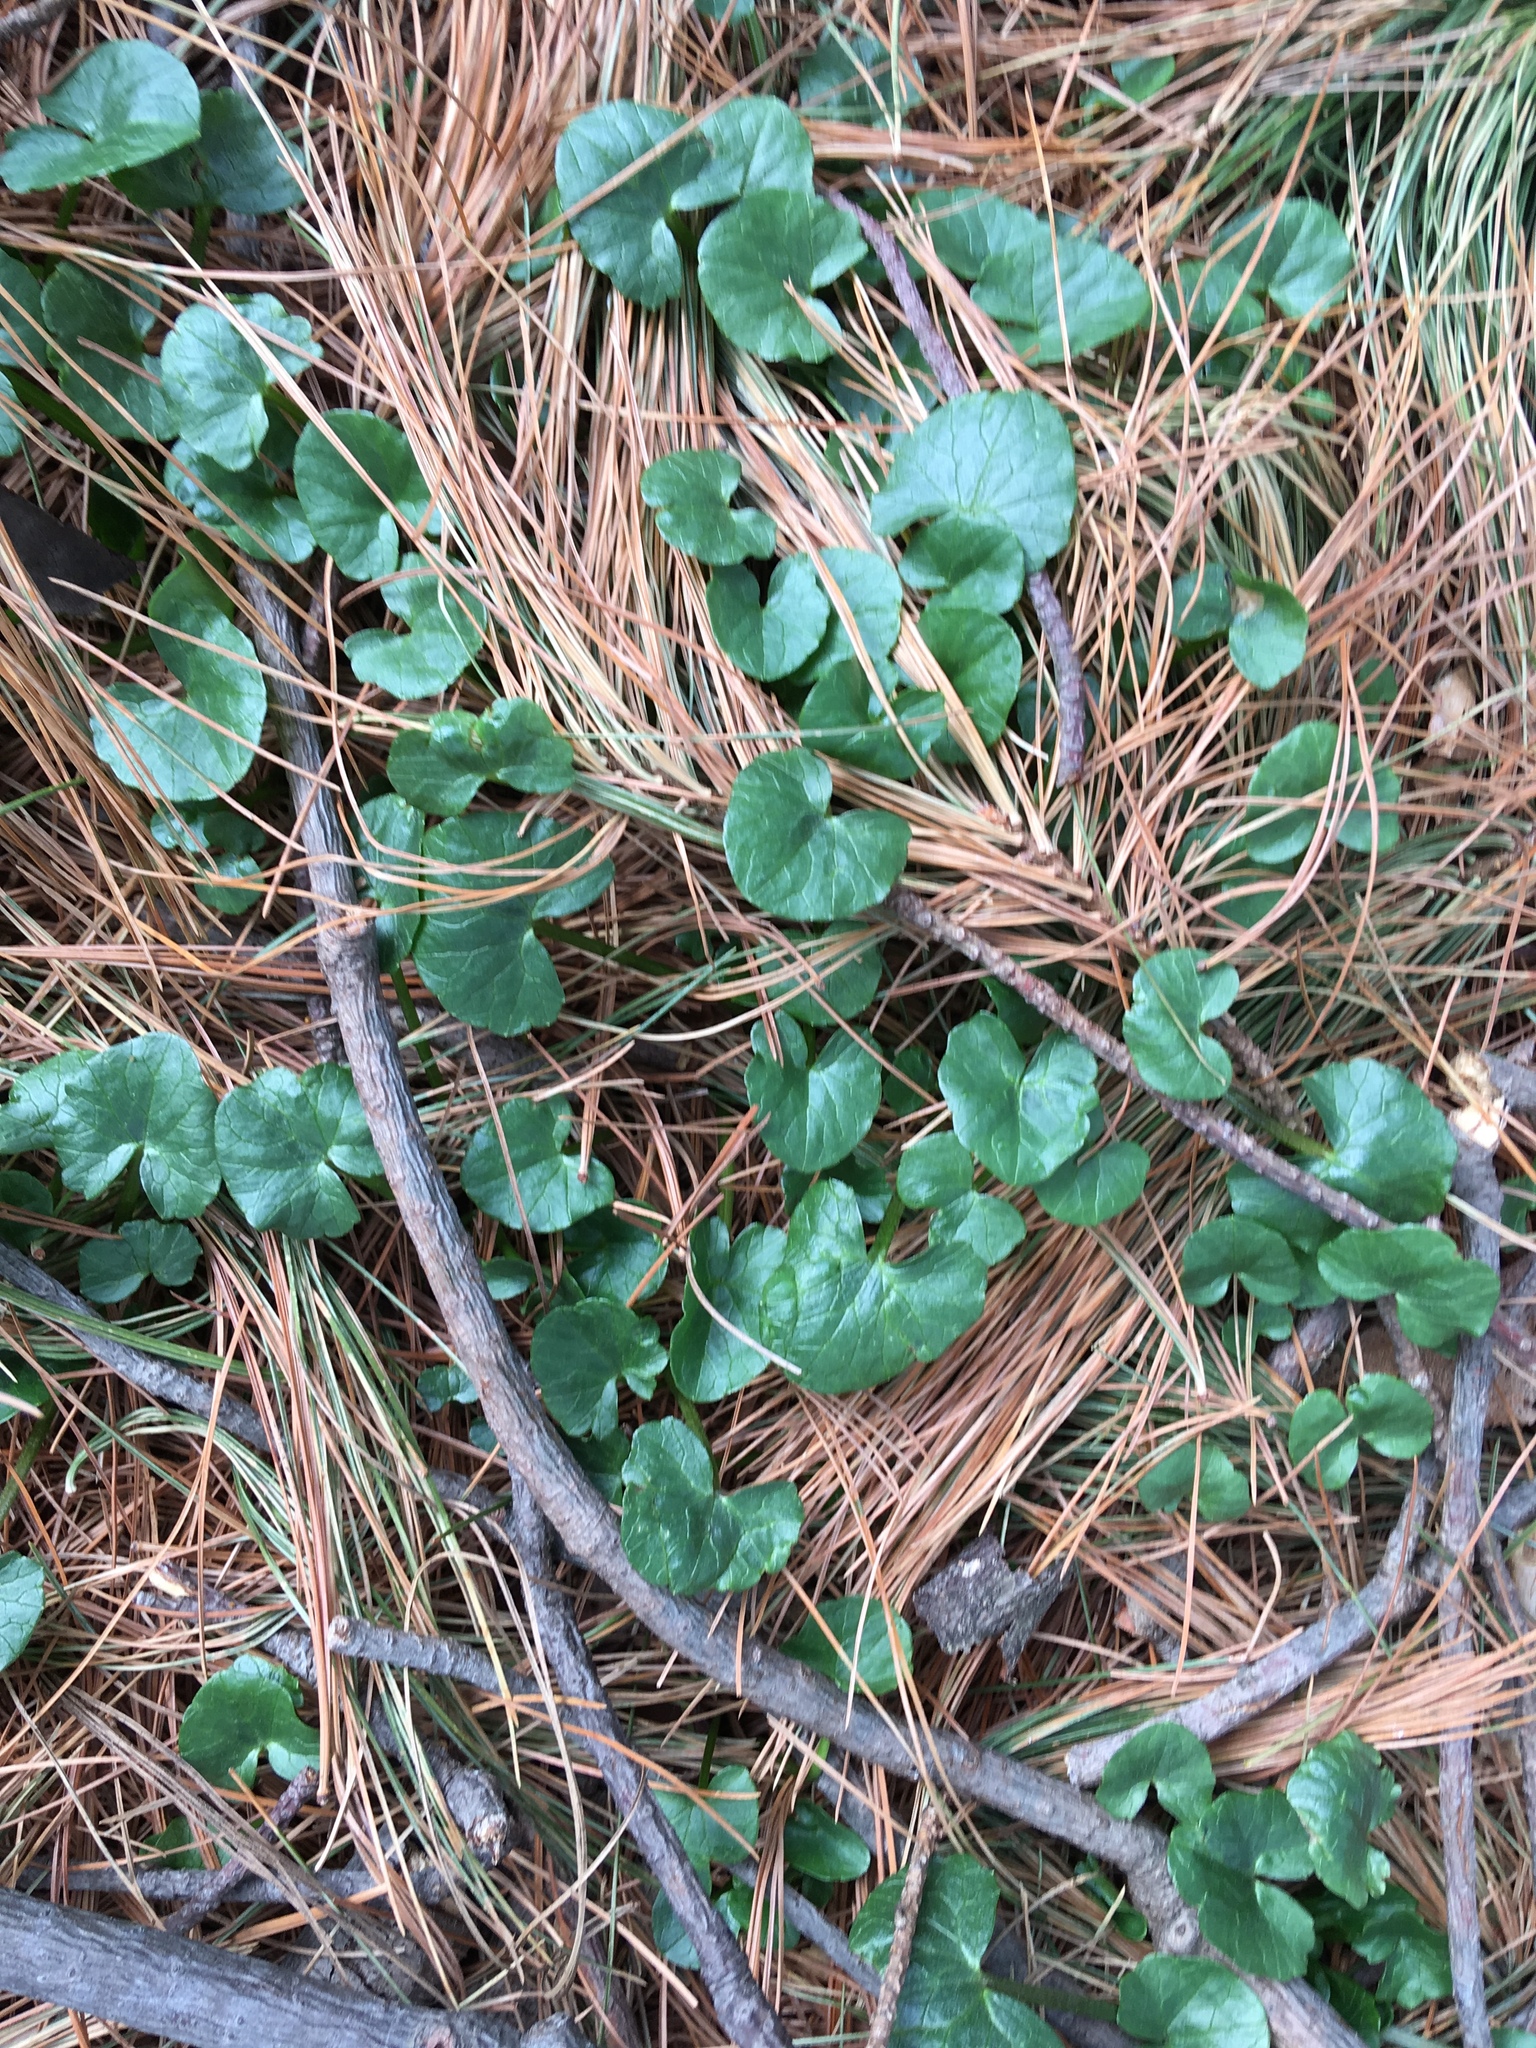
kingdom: Plantae
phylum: Tracheophyta
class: Magnoliopsida
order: Ranunculales
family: Ranunculaceae
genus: Ficaria
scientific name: Ficaria verna
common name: Lesser celandine
